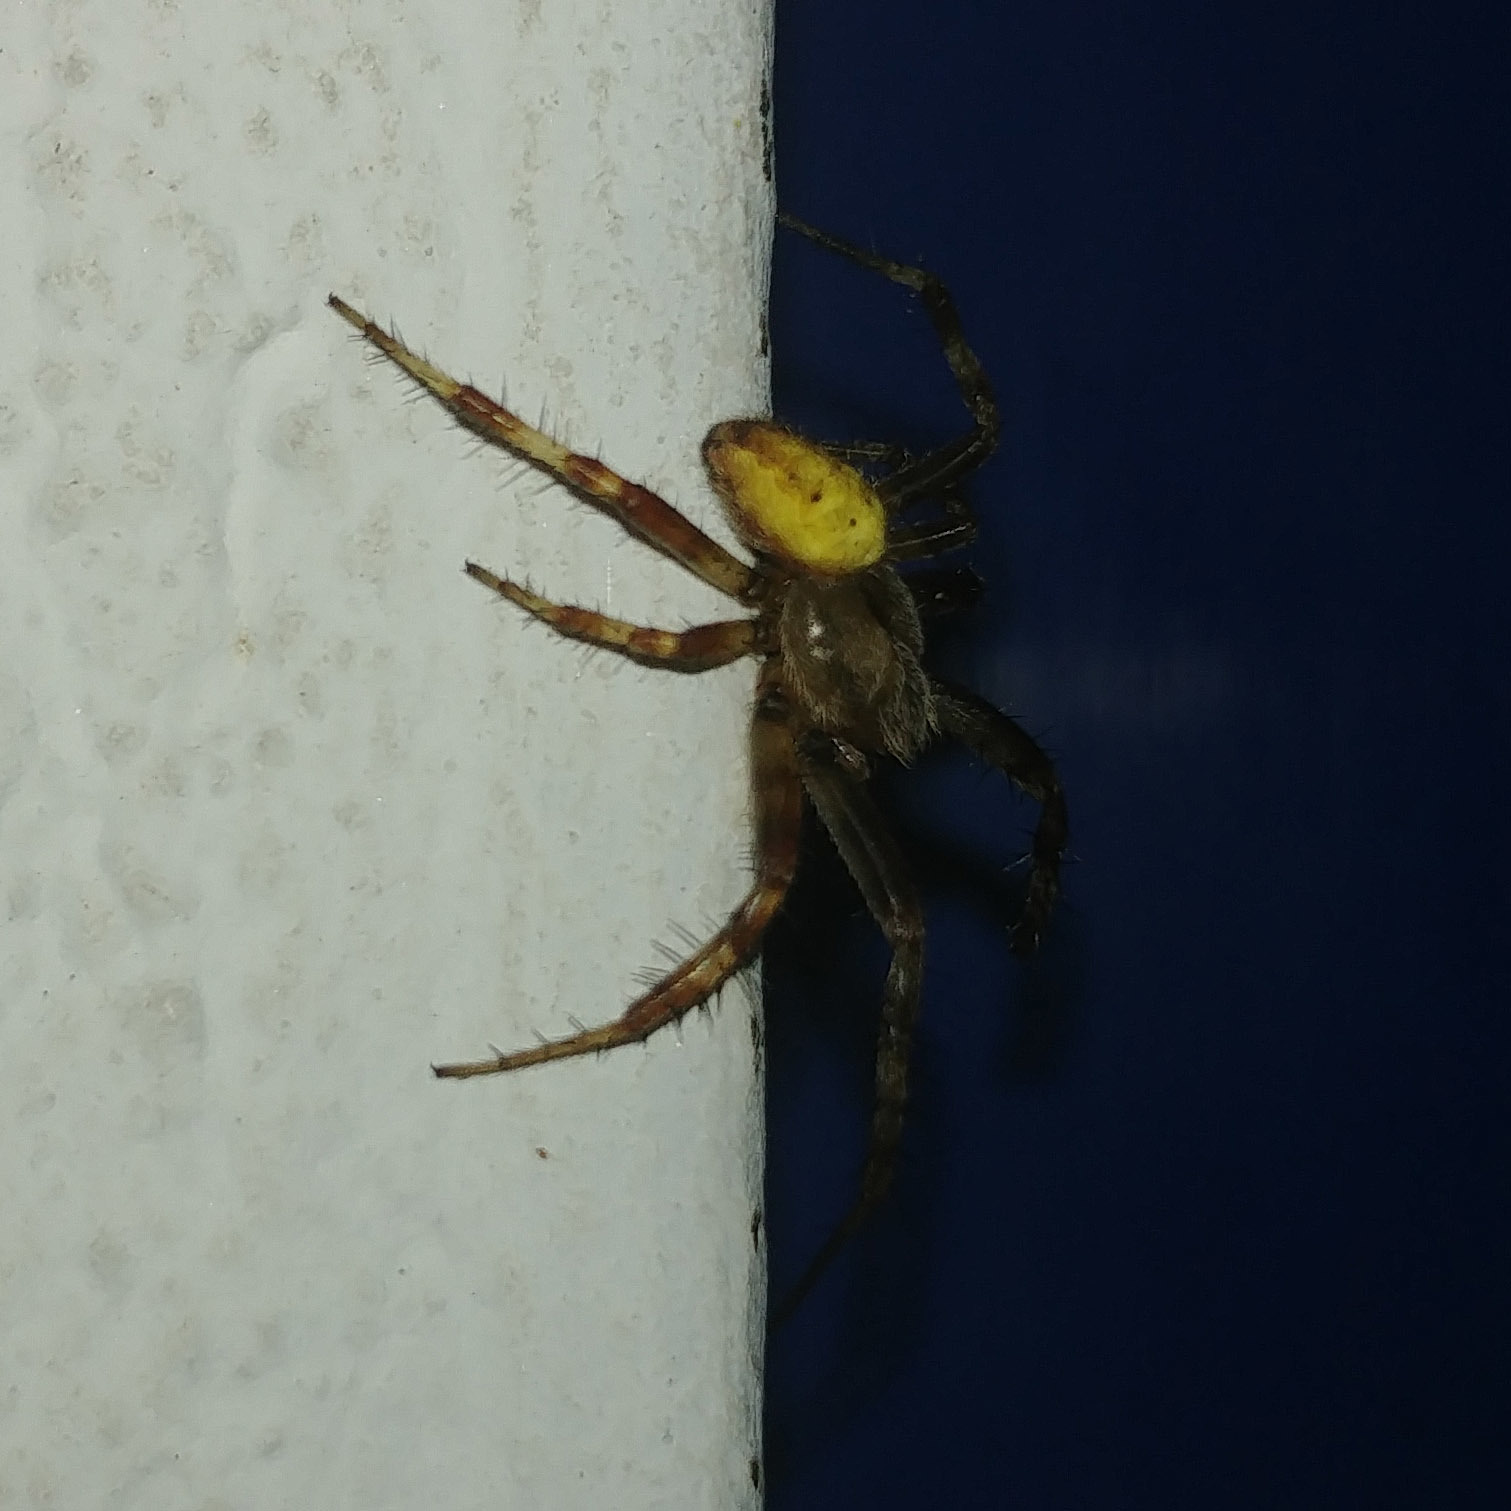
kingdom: Animalia
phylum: Arthropoda
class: Arachnida
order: Araneae
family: Araneidae
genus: Araneus
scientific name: Araneus quadratus
